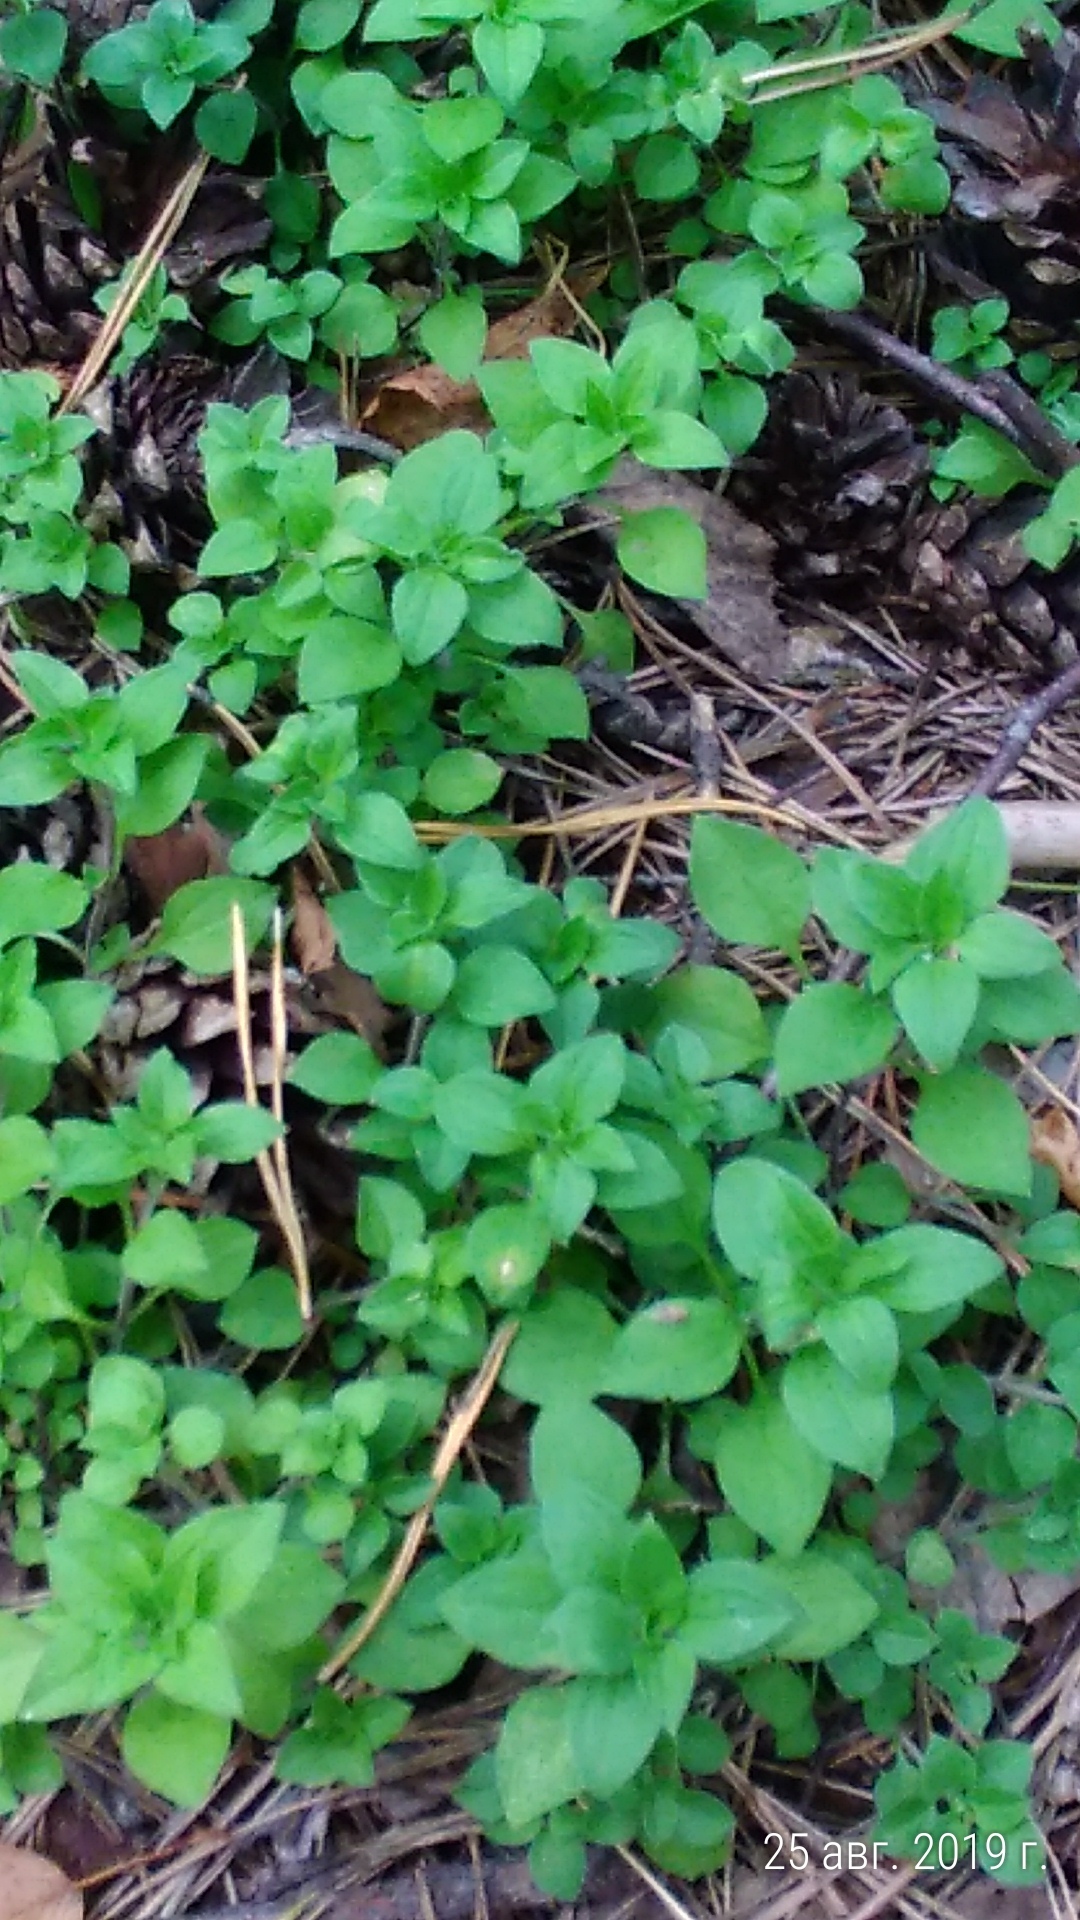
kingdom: Plantae
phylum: Tracheophyta
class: Magnoliopsida
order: Caryophyllales
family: Caryophyllaceae
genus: Moehringia
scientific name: Moehringia trinervia
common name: Three-nerved sandwort
